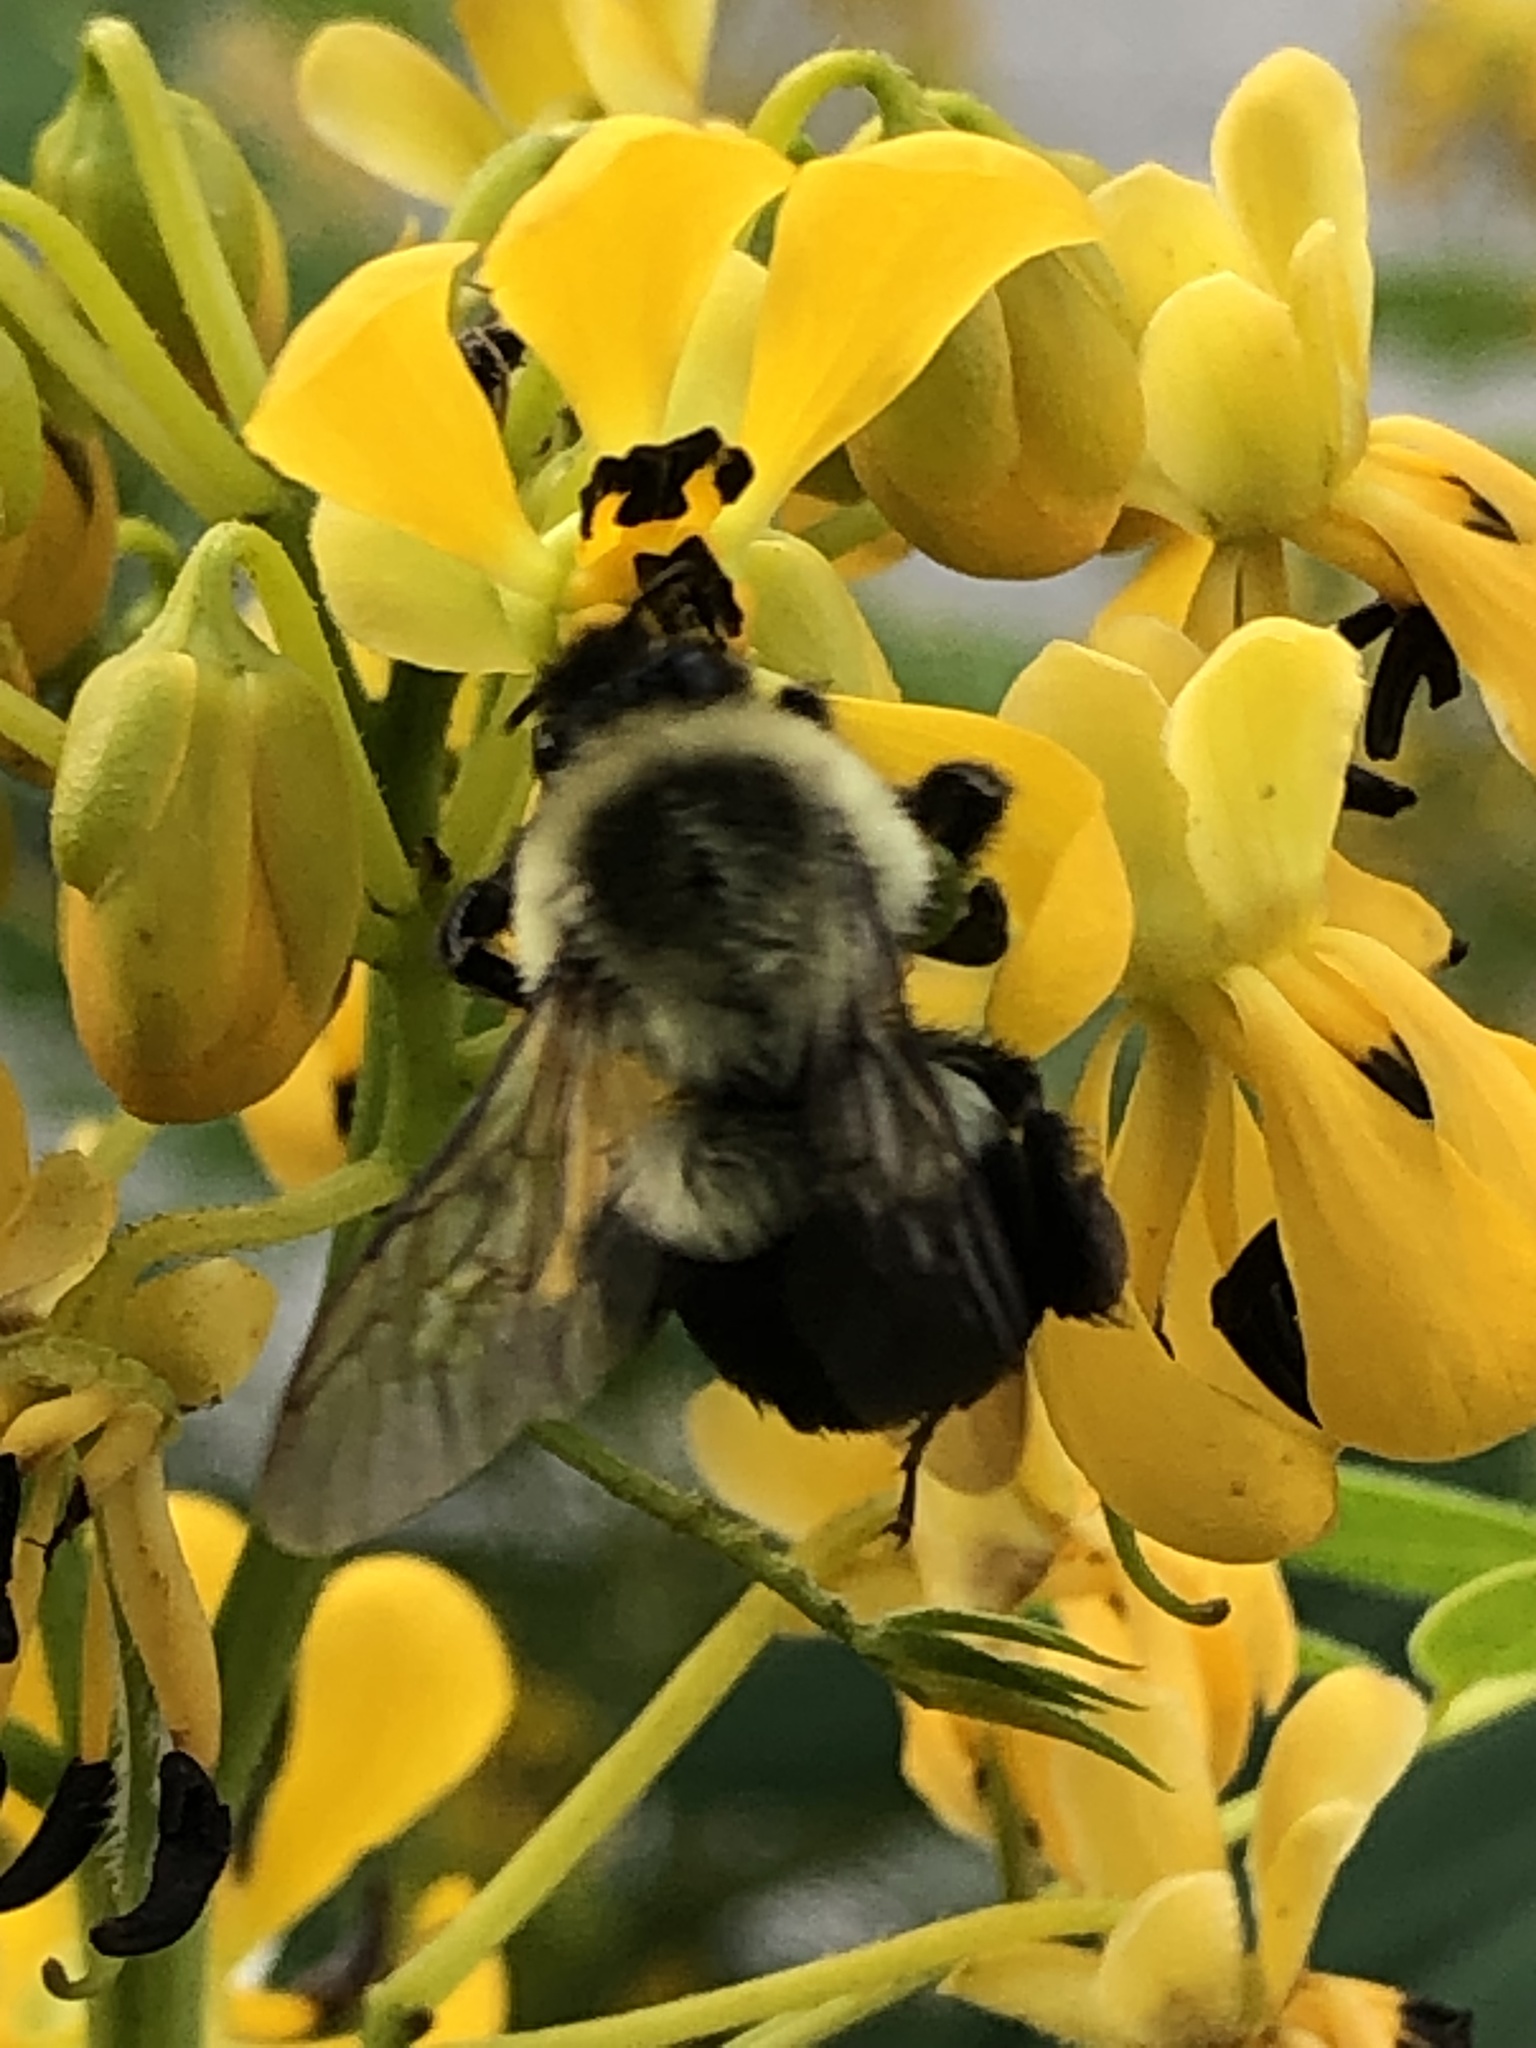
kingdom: Animalia
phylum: Arthropoda
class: Insecta
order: Hymenoptera
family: Apidae
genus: Bombus
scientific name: Bombus impatiens
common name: Common eastern bumble bee
